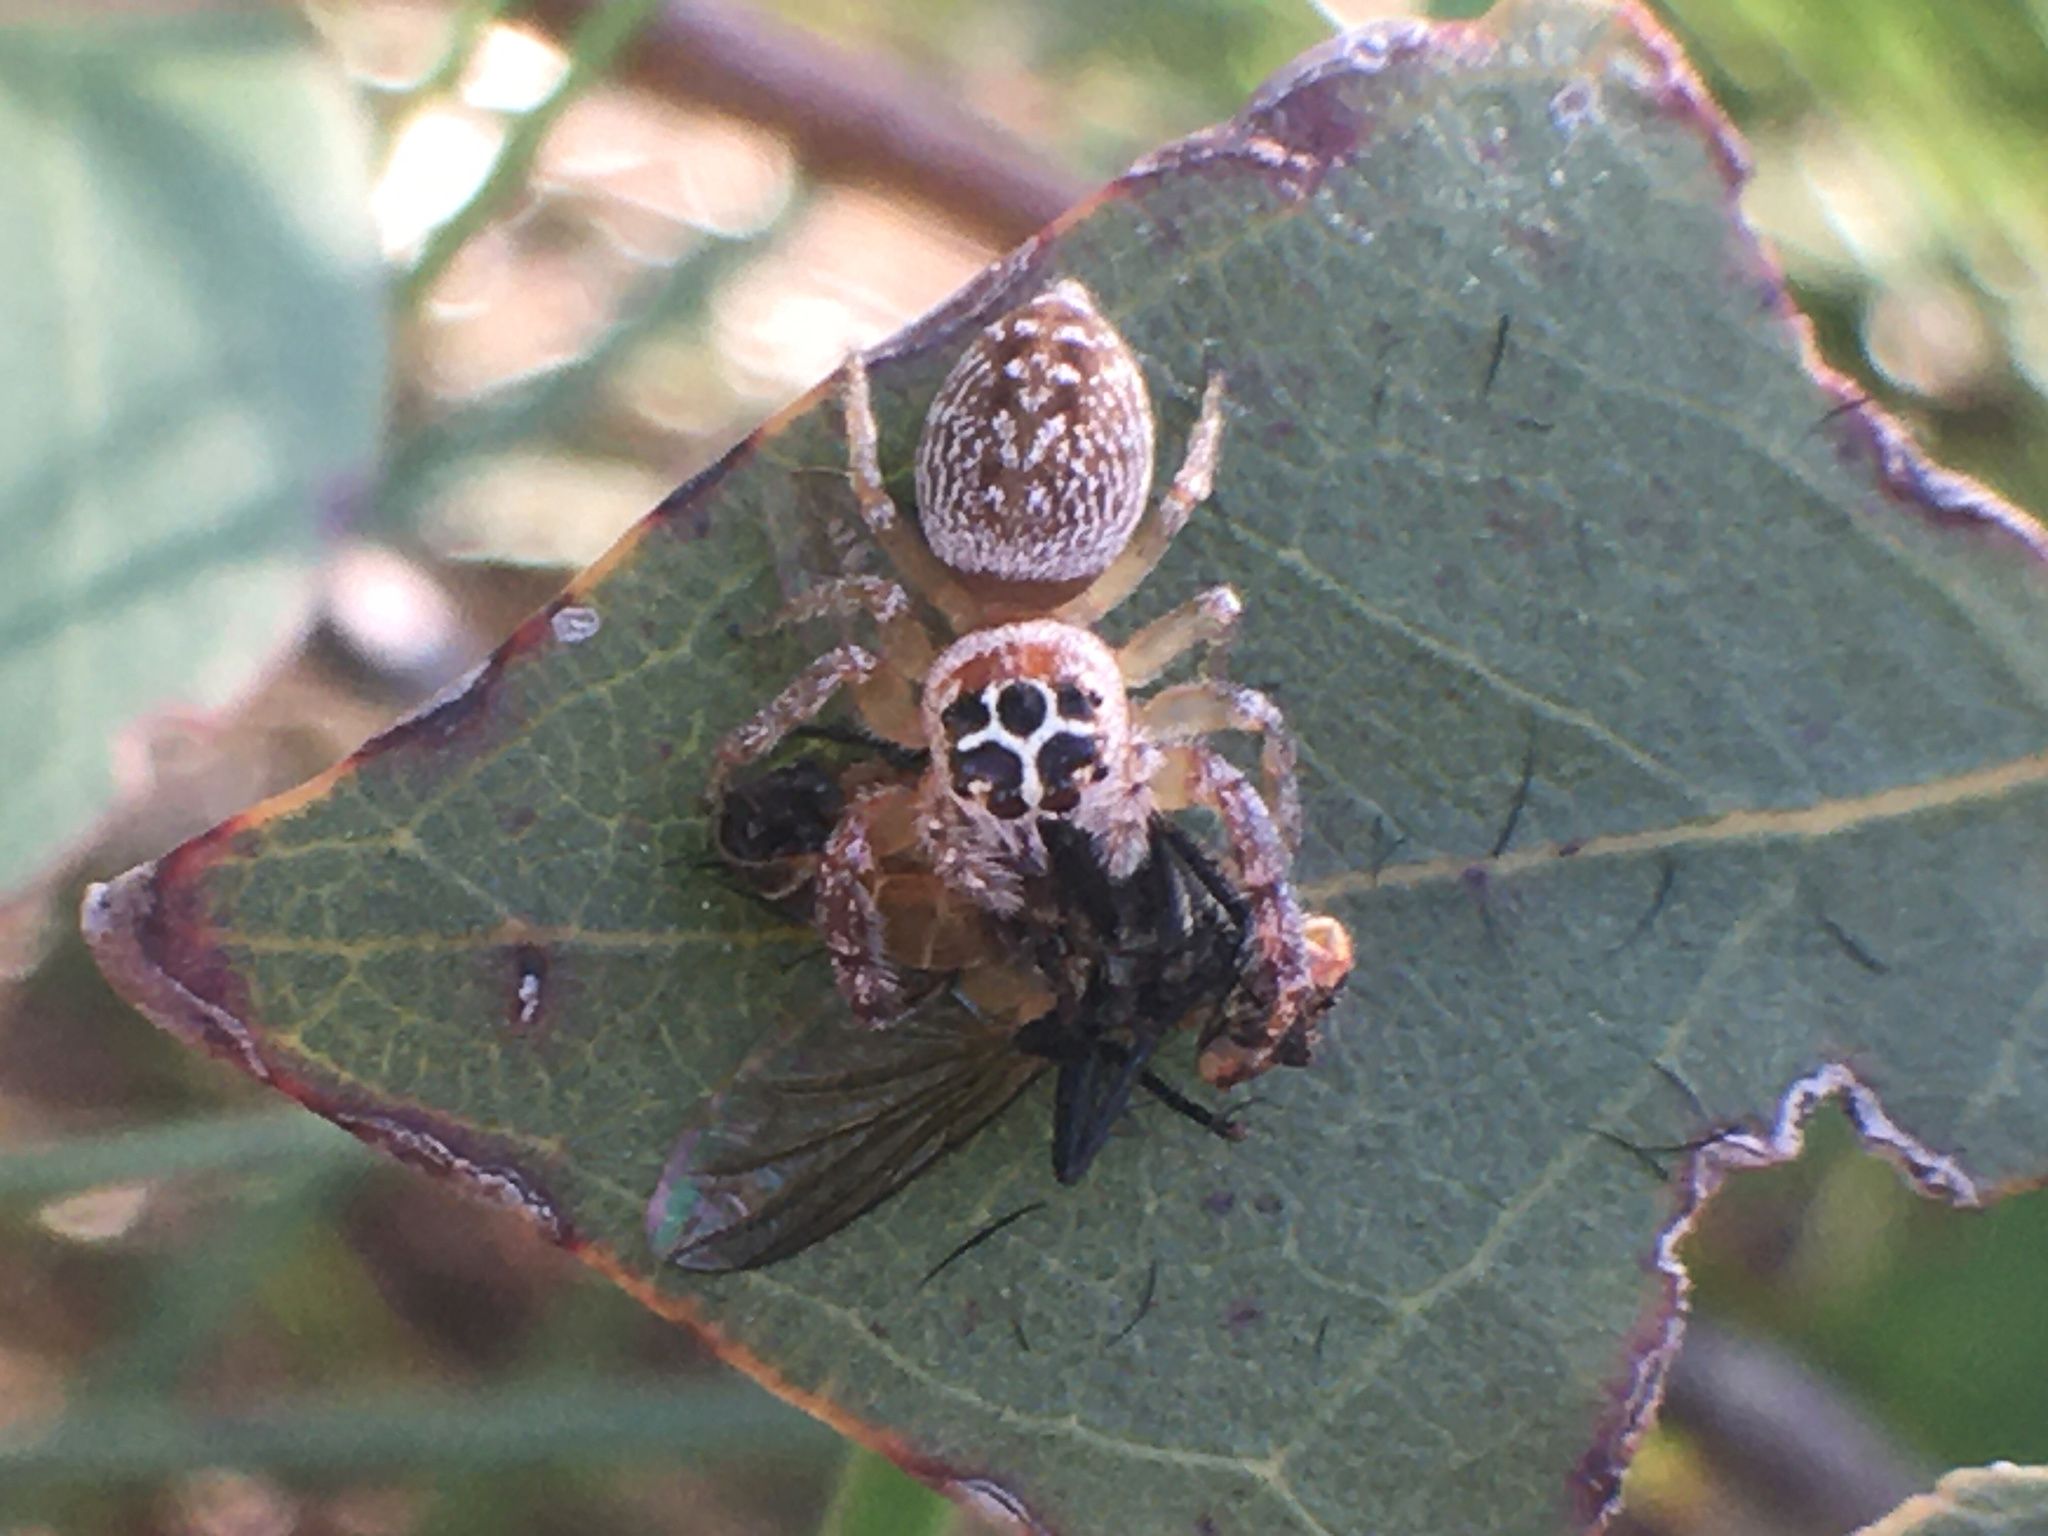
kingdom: Animalia
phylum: Arthropoda
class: Arachnida
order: Araneae
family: Salticidae
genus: Opisthoncus
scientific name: Opisthoncus polyphemus
